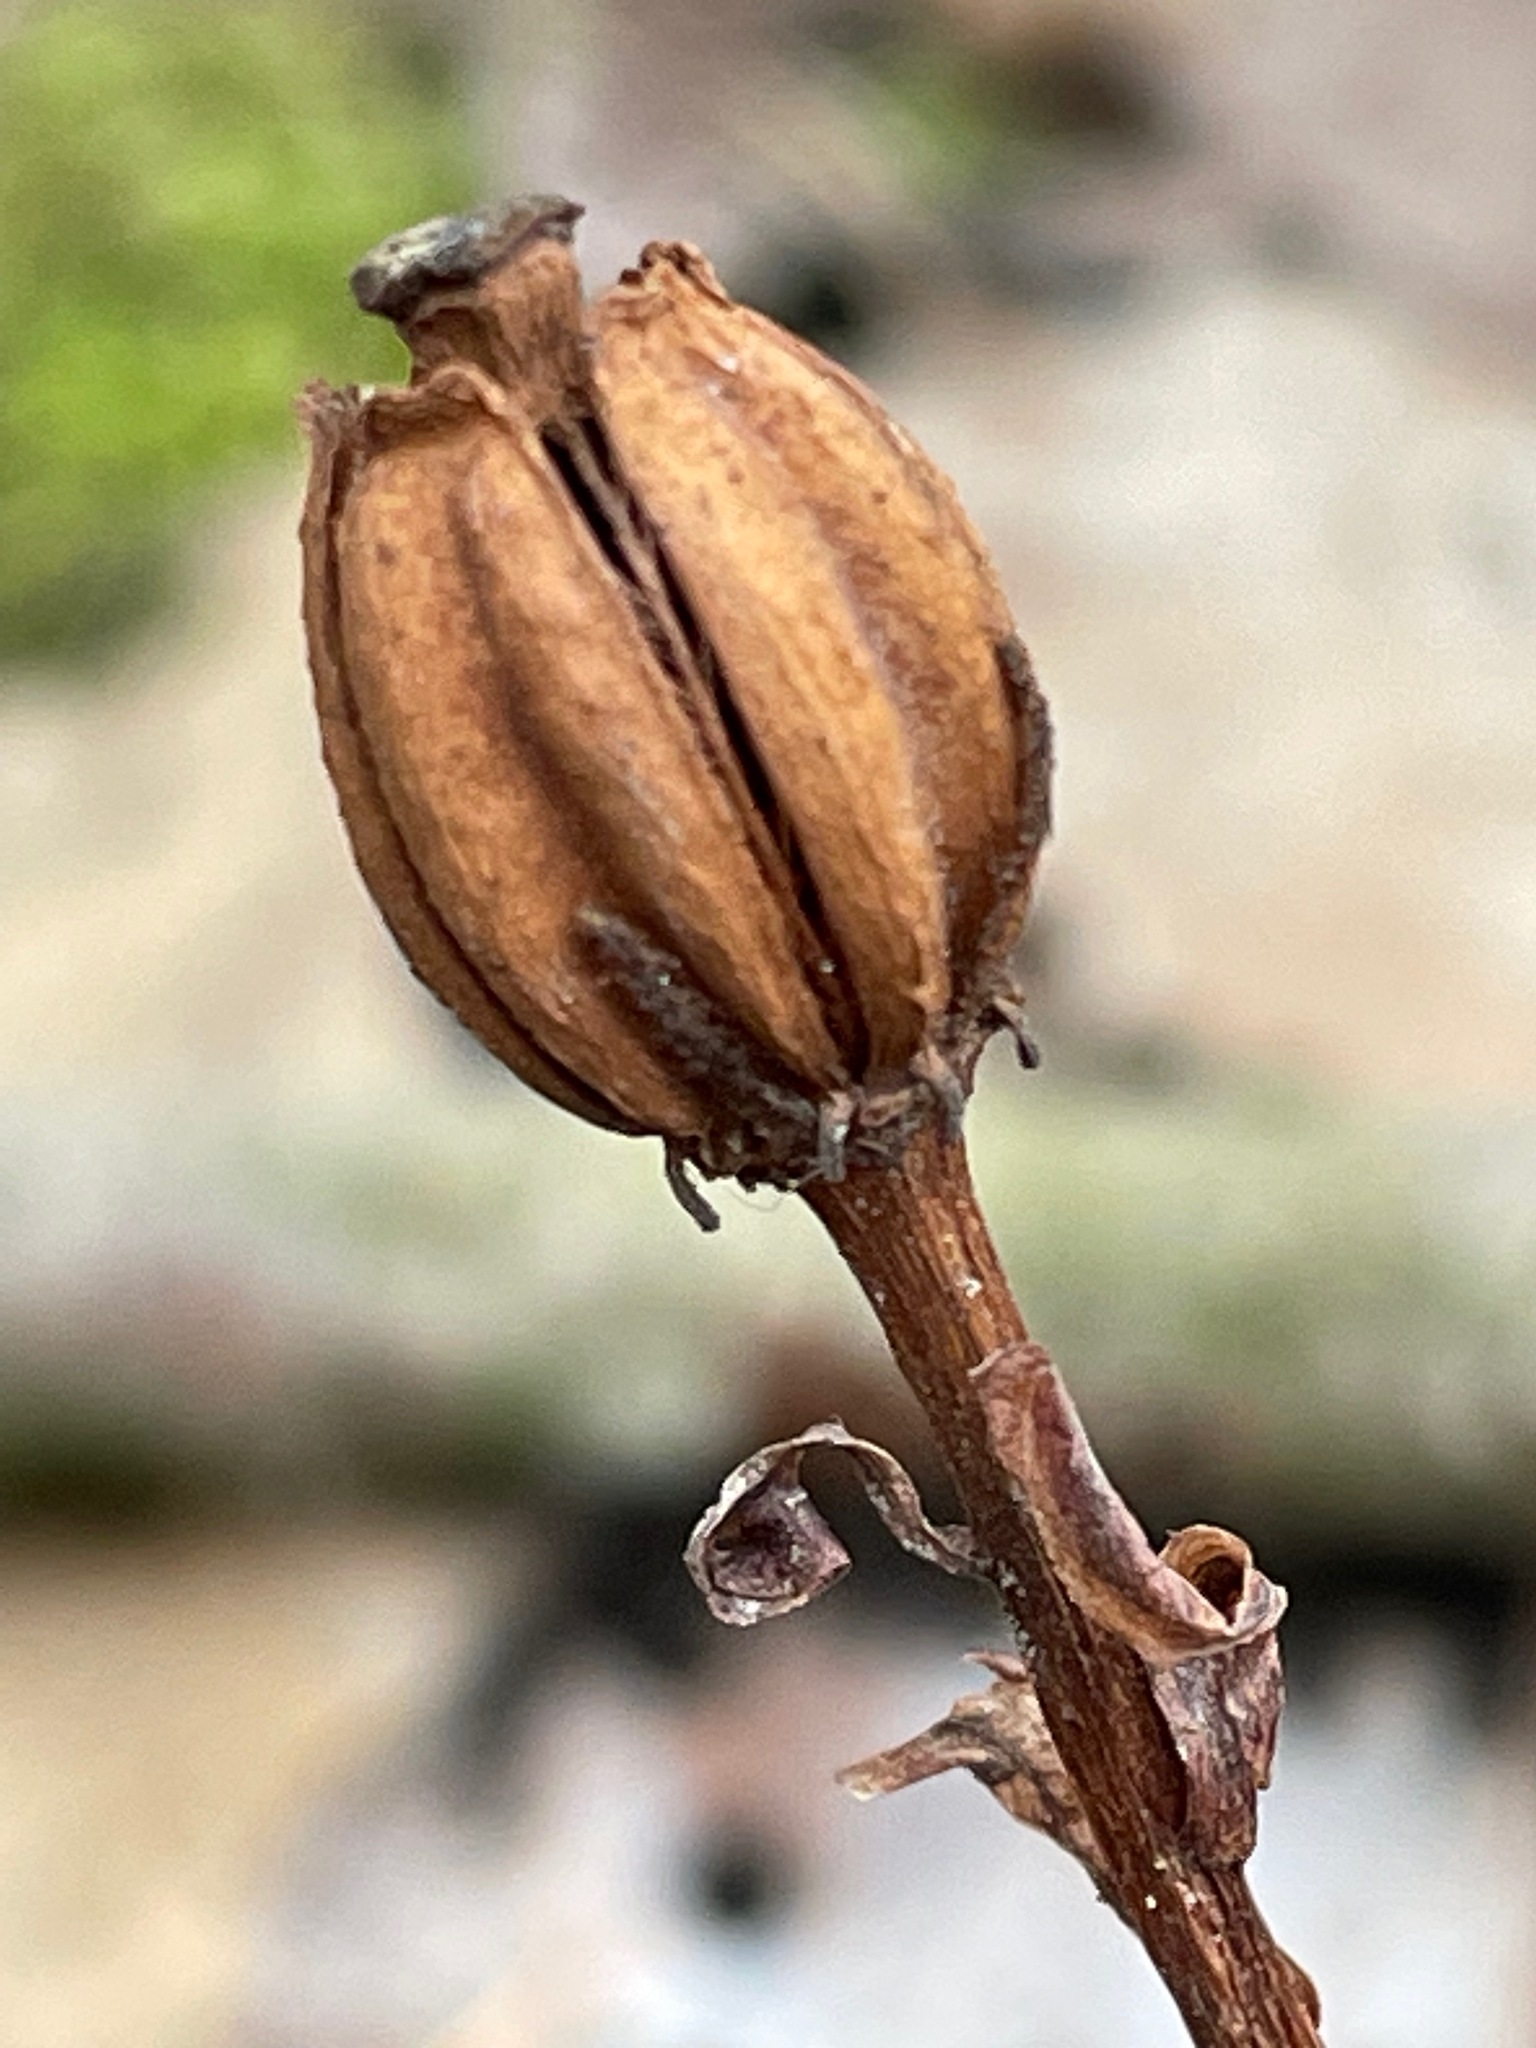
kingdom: Plantae
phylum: Tracheophyta
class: Magnoliopsida
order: Ericales
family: Ericaceae
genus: Monotropa
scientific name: Monotropa uniflora
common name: Convulsion root
